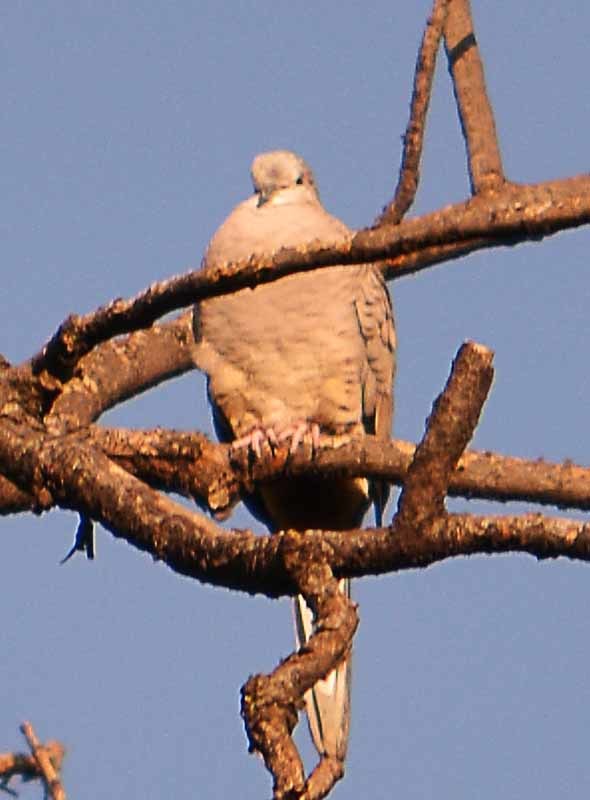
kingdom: Animalia
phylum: Chordata
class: Aves
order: Columbiformes
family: Columbidae
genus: Columbina
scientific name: Columbina inca
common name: Inca dove
